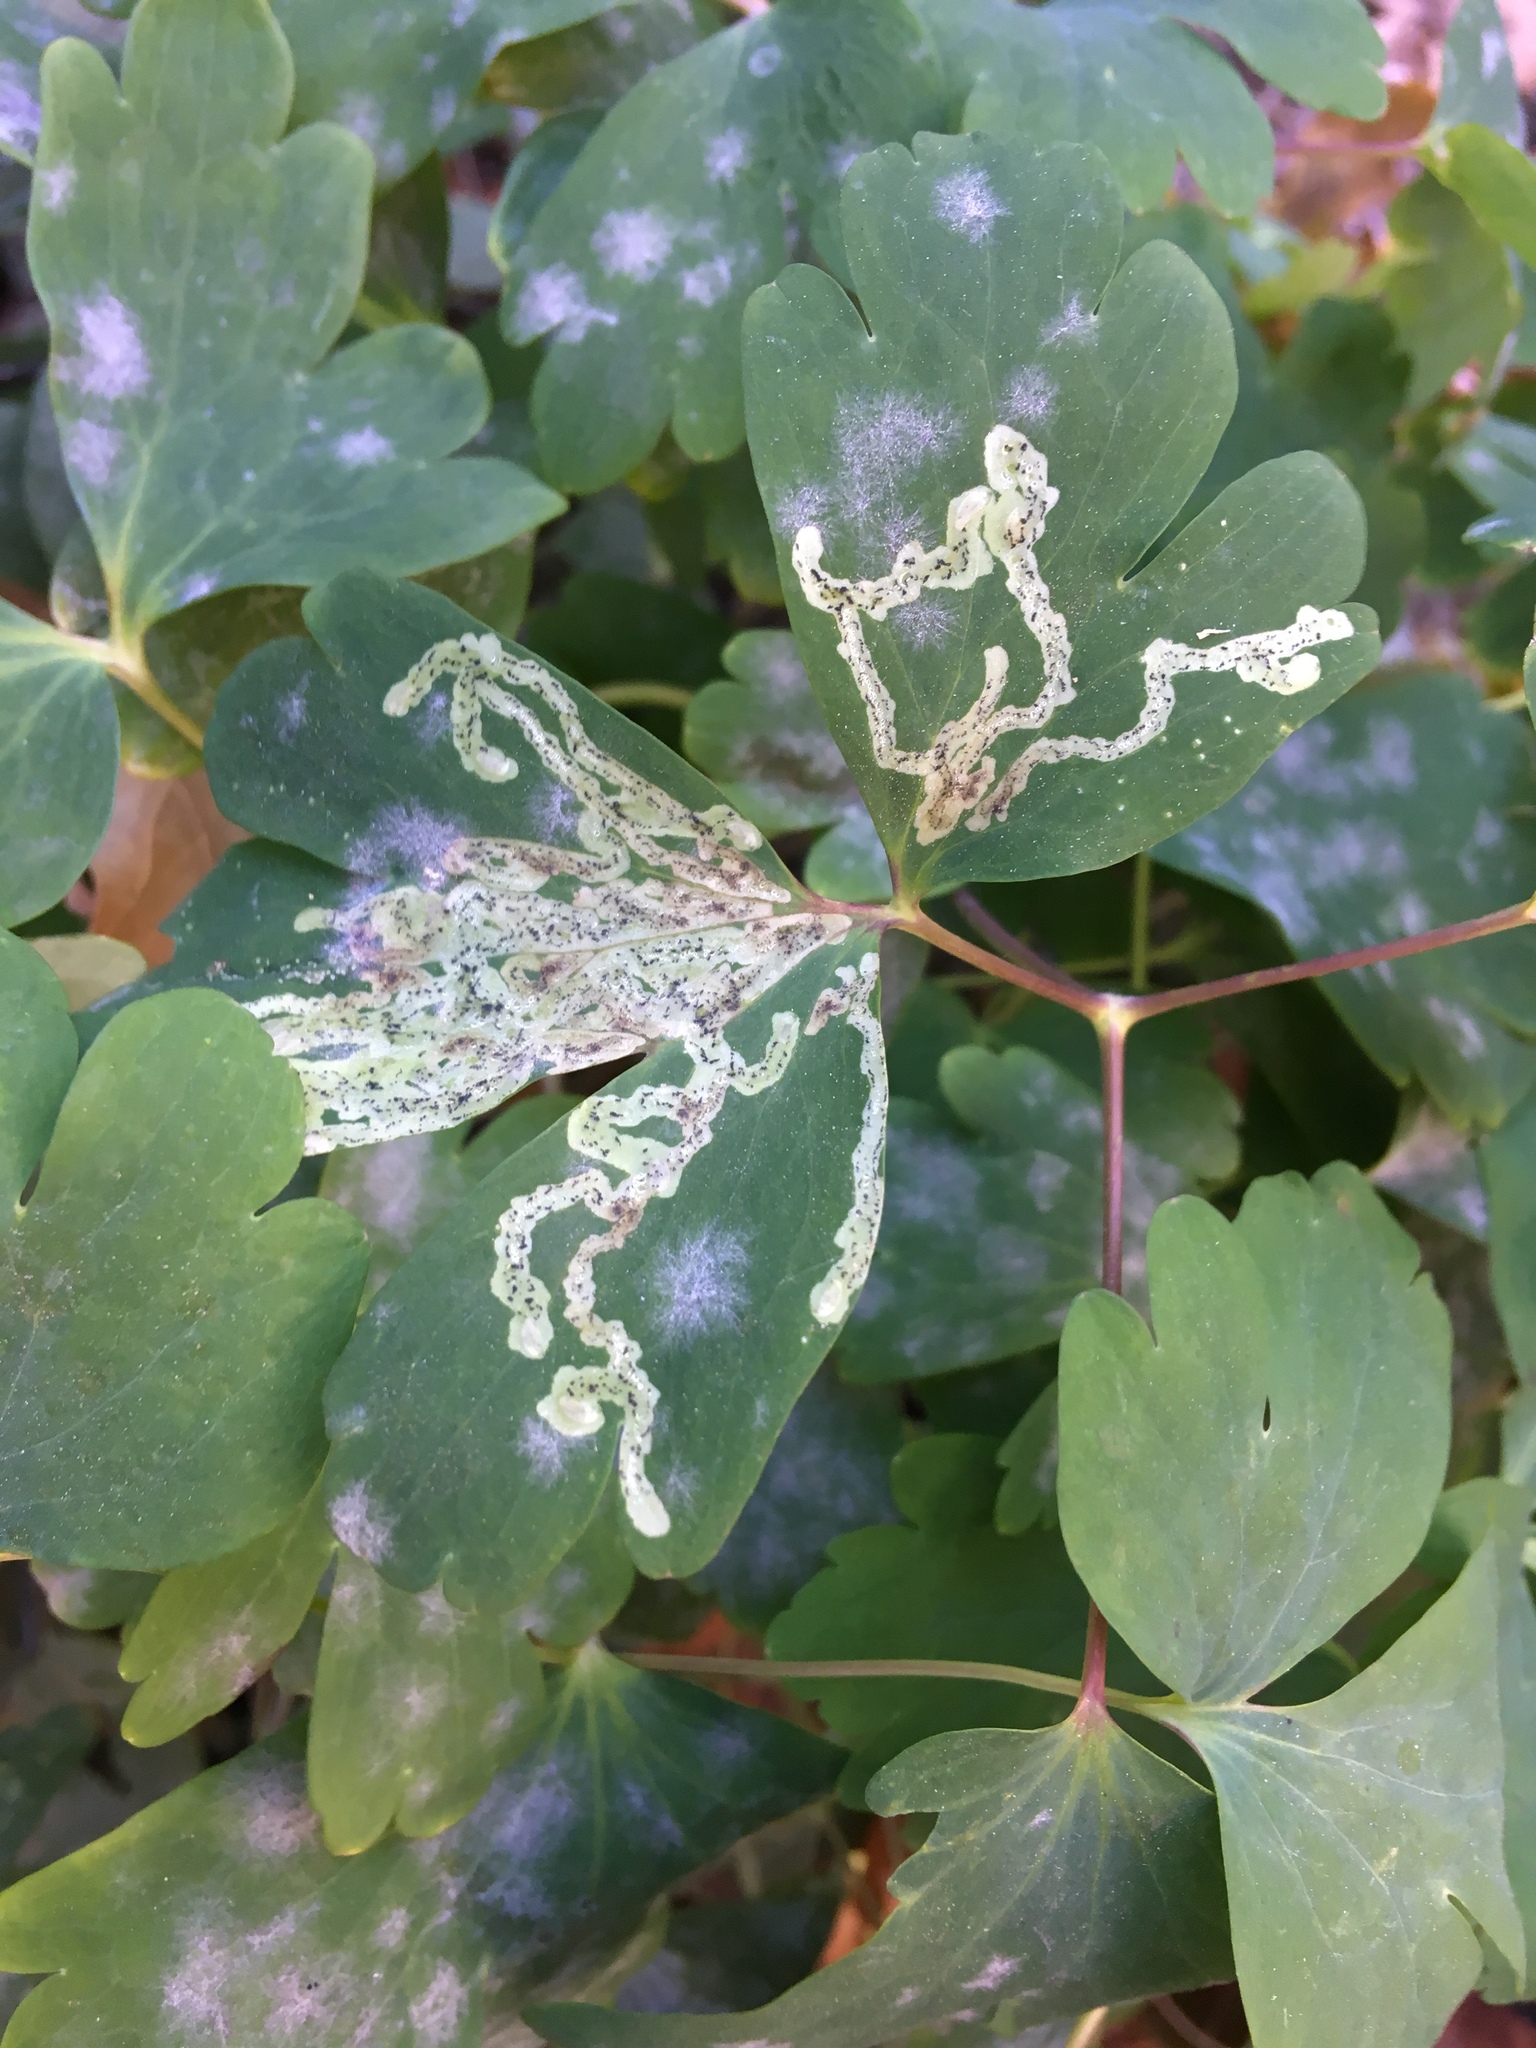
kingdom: Animalia
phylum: Arthropoda
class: Insecta
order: Diptera
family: Agromyzidae
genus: Phytomyza
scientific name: Phytomyza
